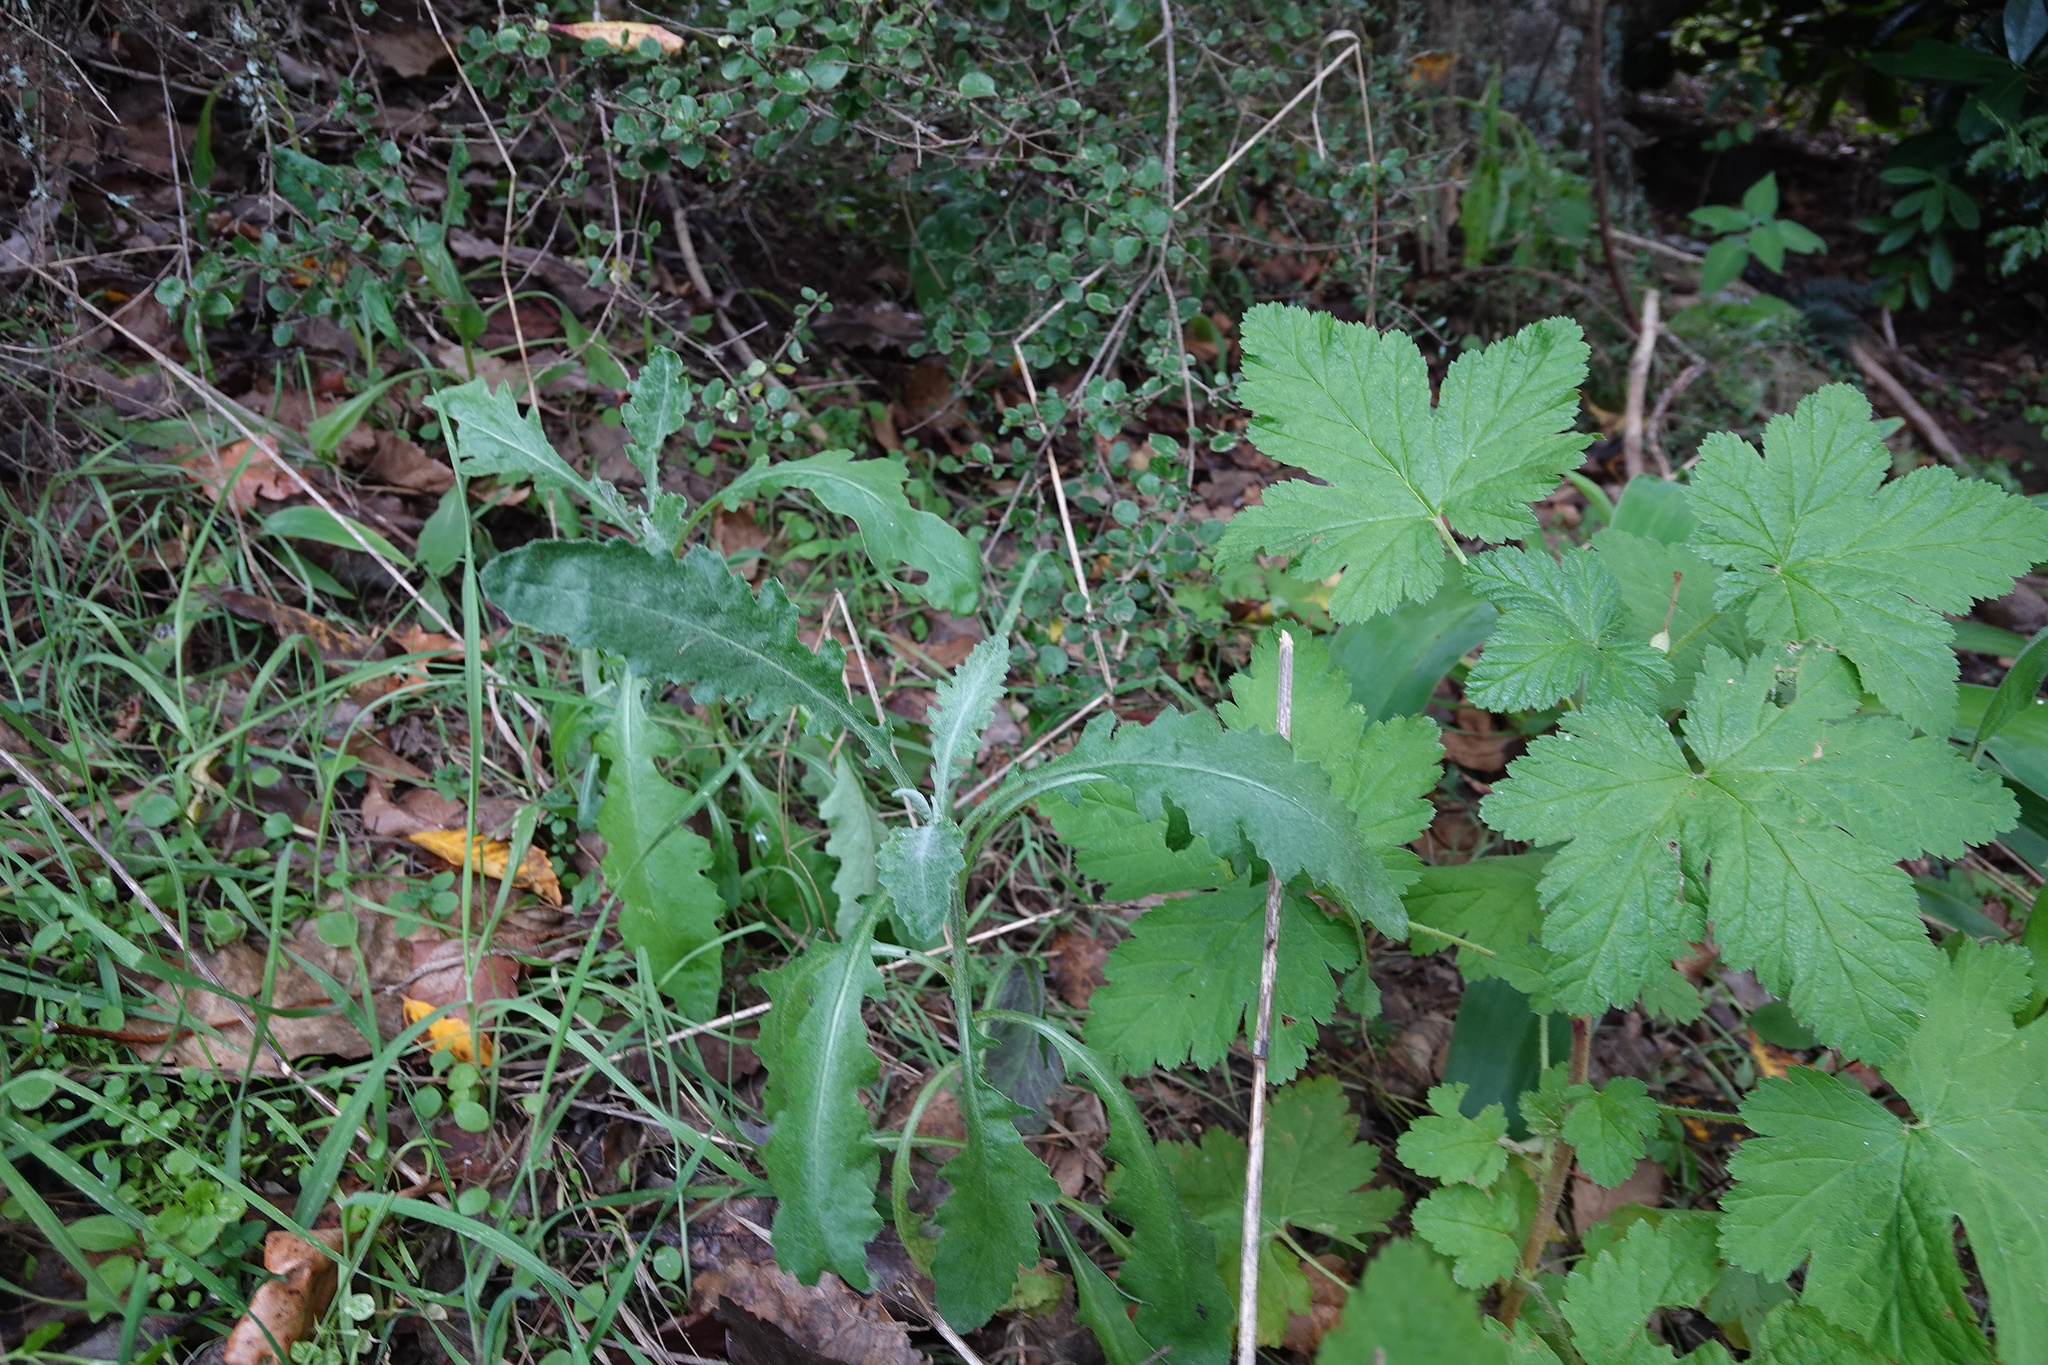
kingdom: Plantae
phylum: Tracheophyta
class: Magnoliopsida
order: Asterales
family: Asteraceae
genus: Senecio
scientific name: Senecio glomeratus
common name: Cutleaf burnweed
